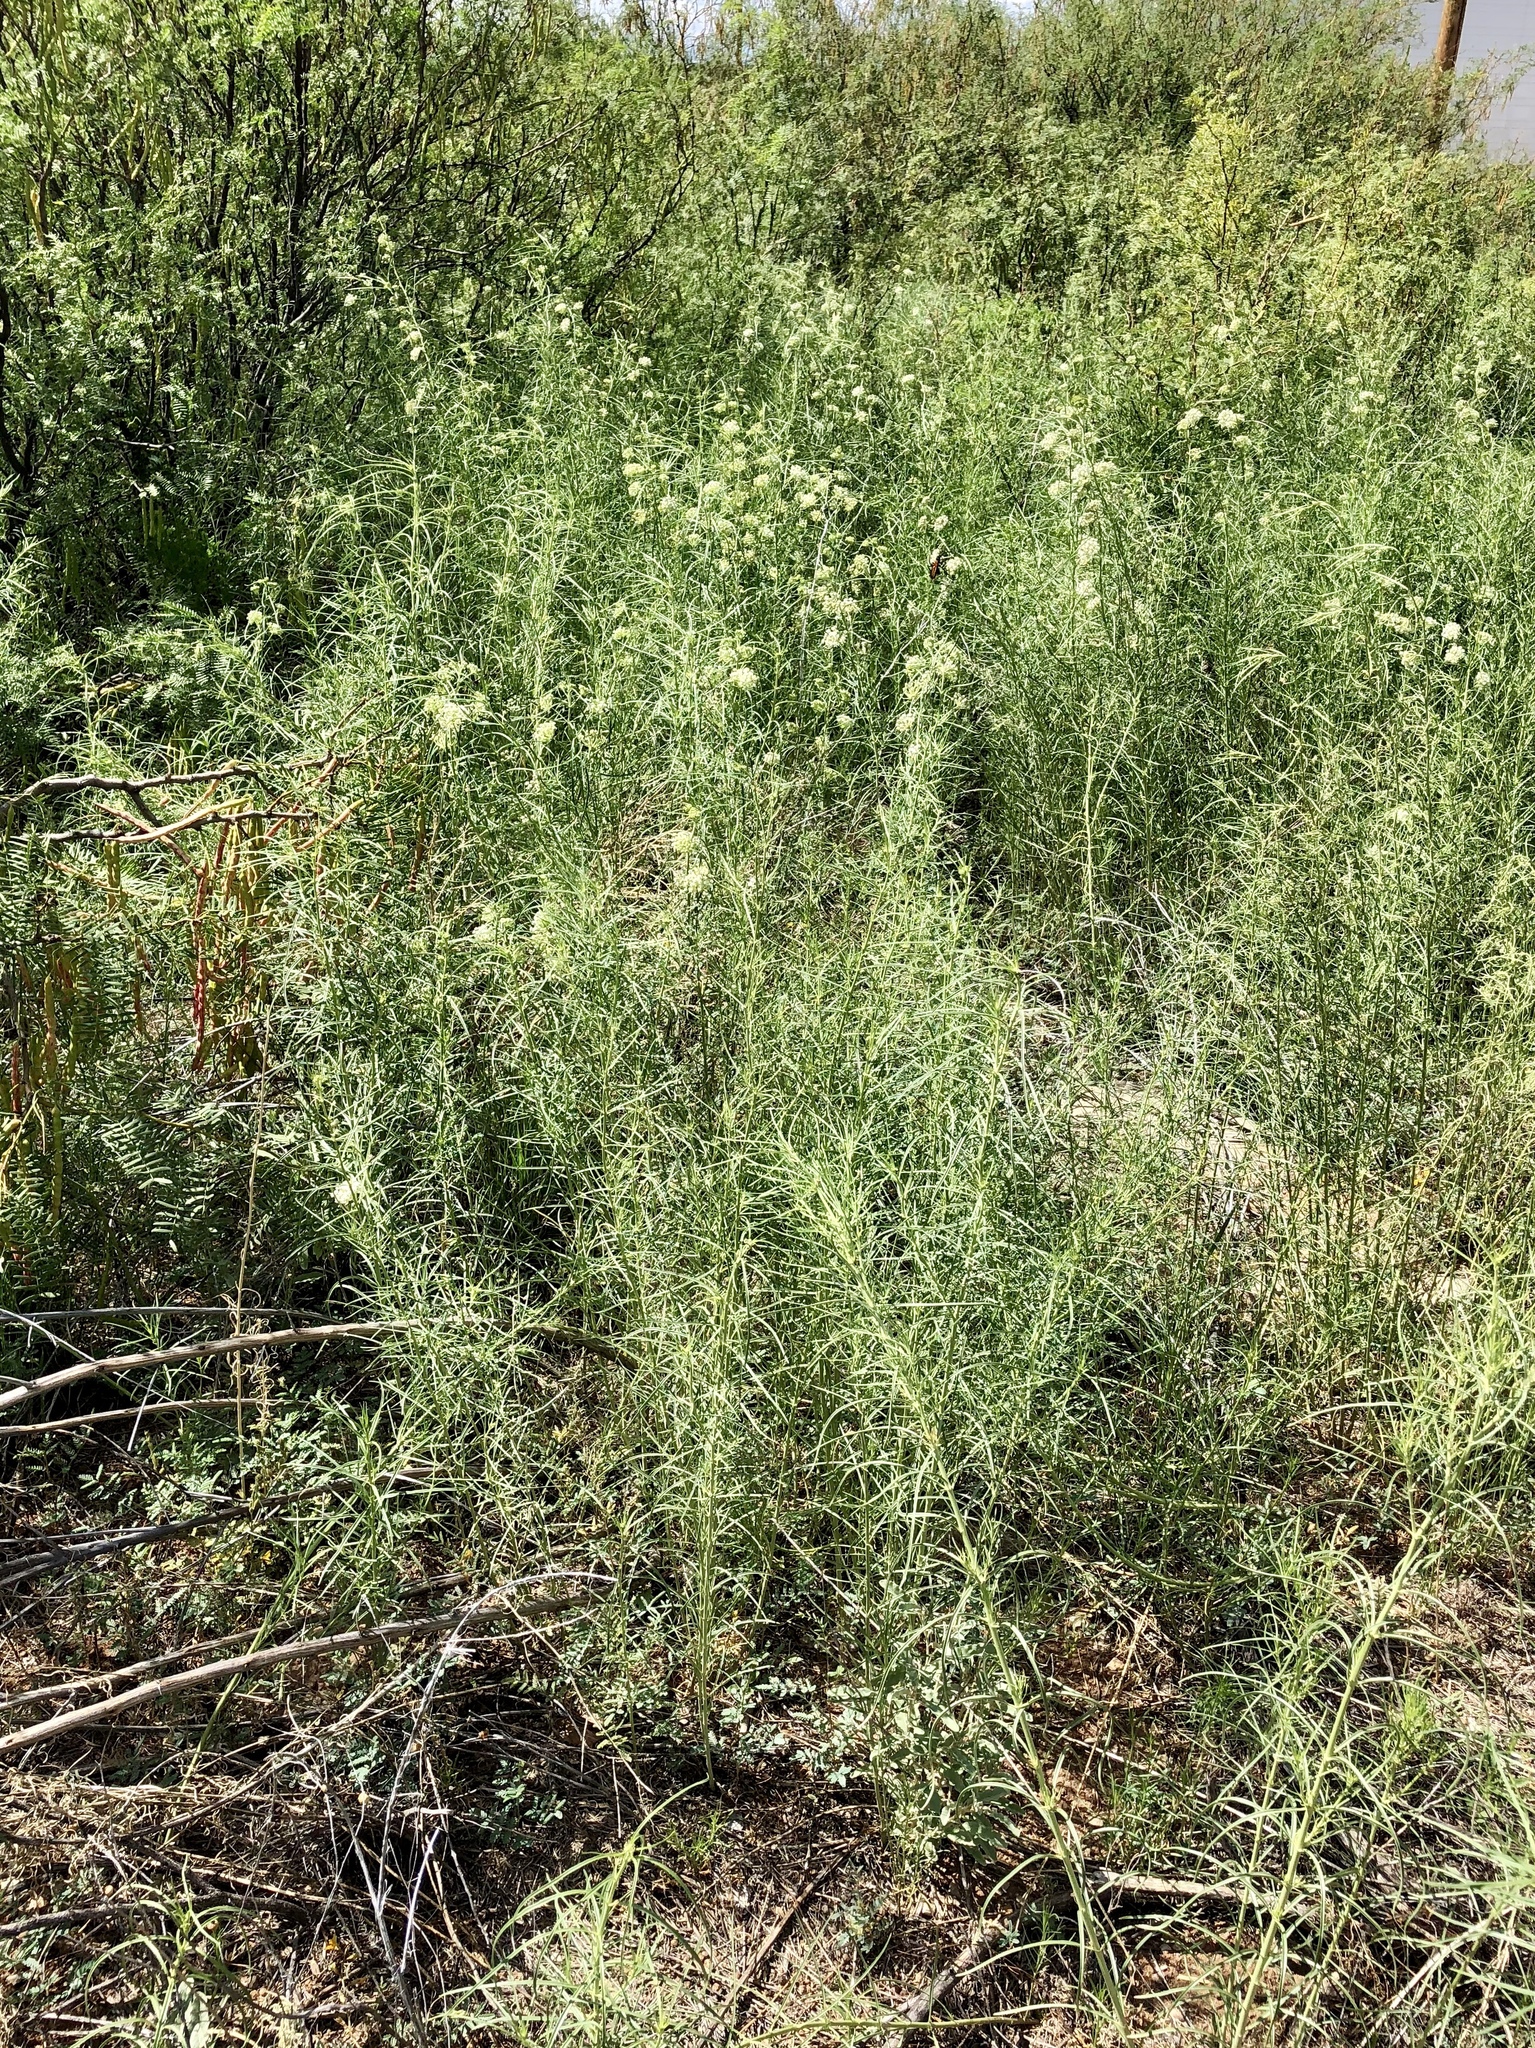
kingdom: Plantae
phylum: Tracheophyta
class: Magnoliopsida
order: Gentianales
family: Apocynaceae
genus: Asclepias
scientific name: Asclepias subverticillata
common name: Horsetail milkweed
